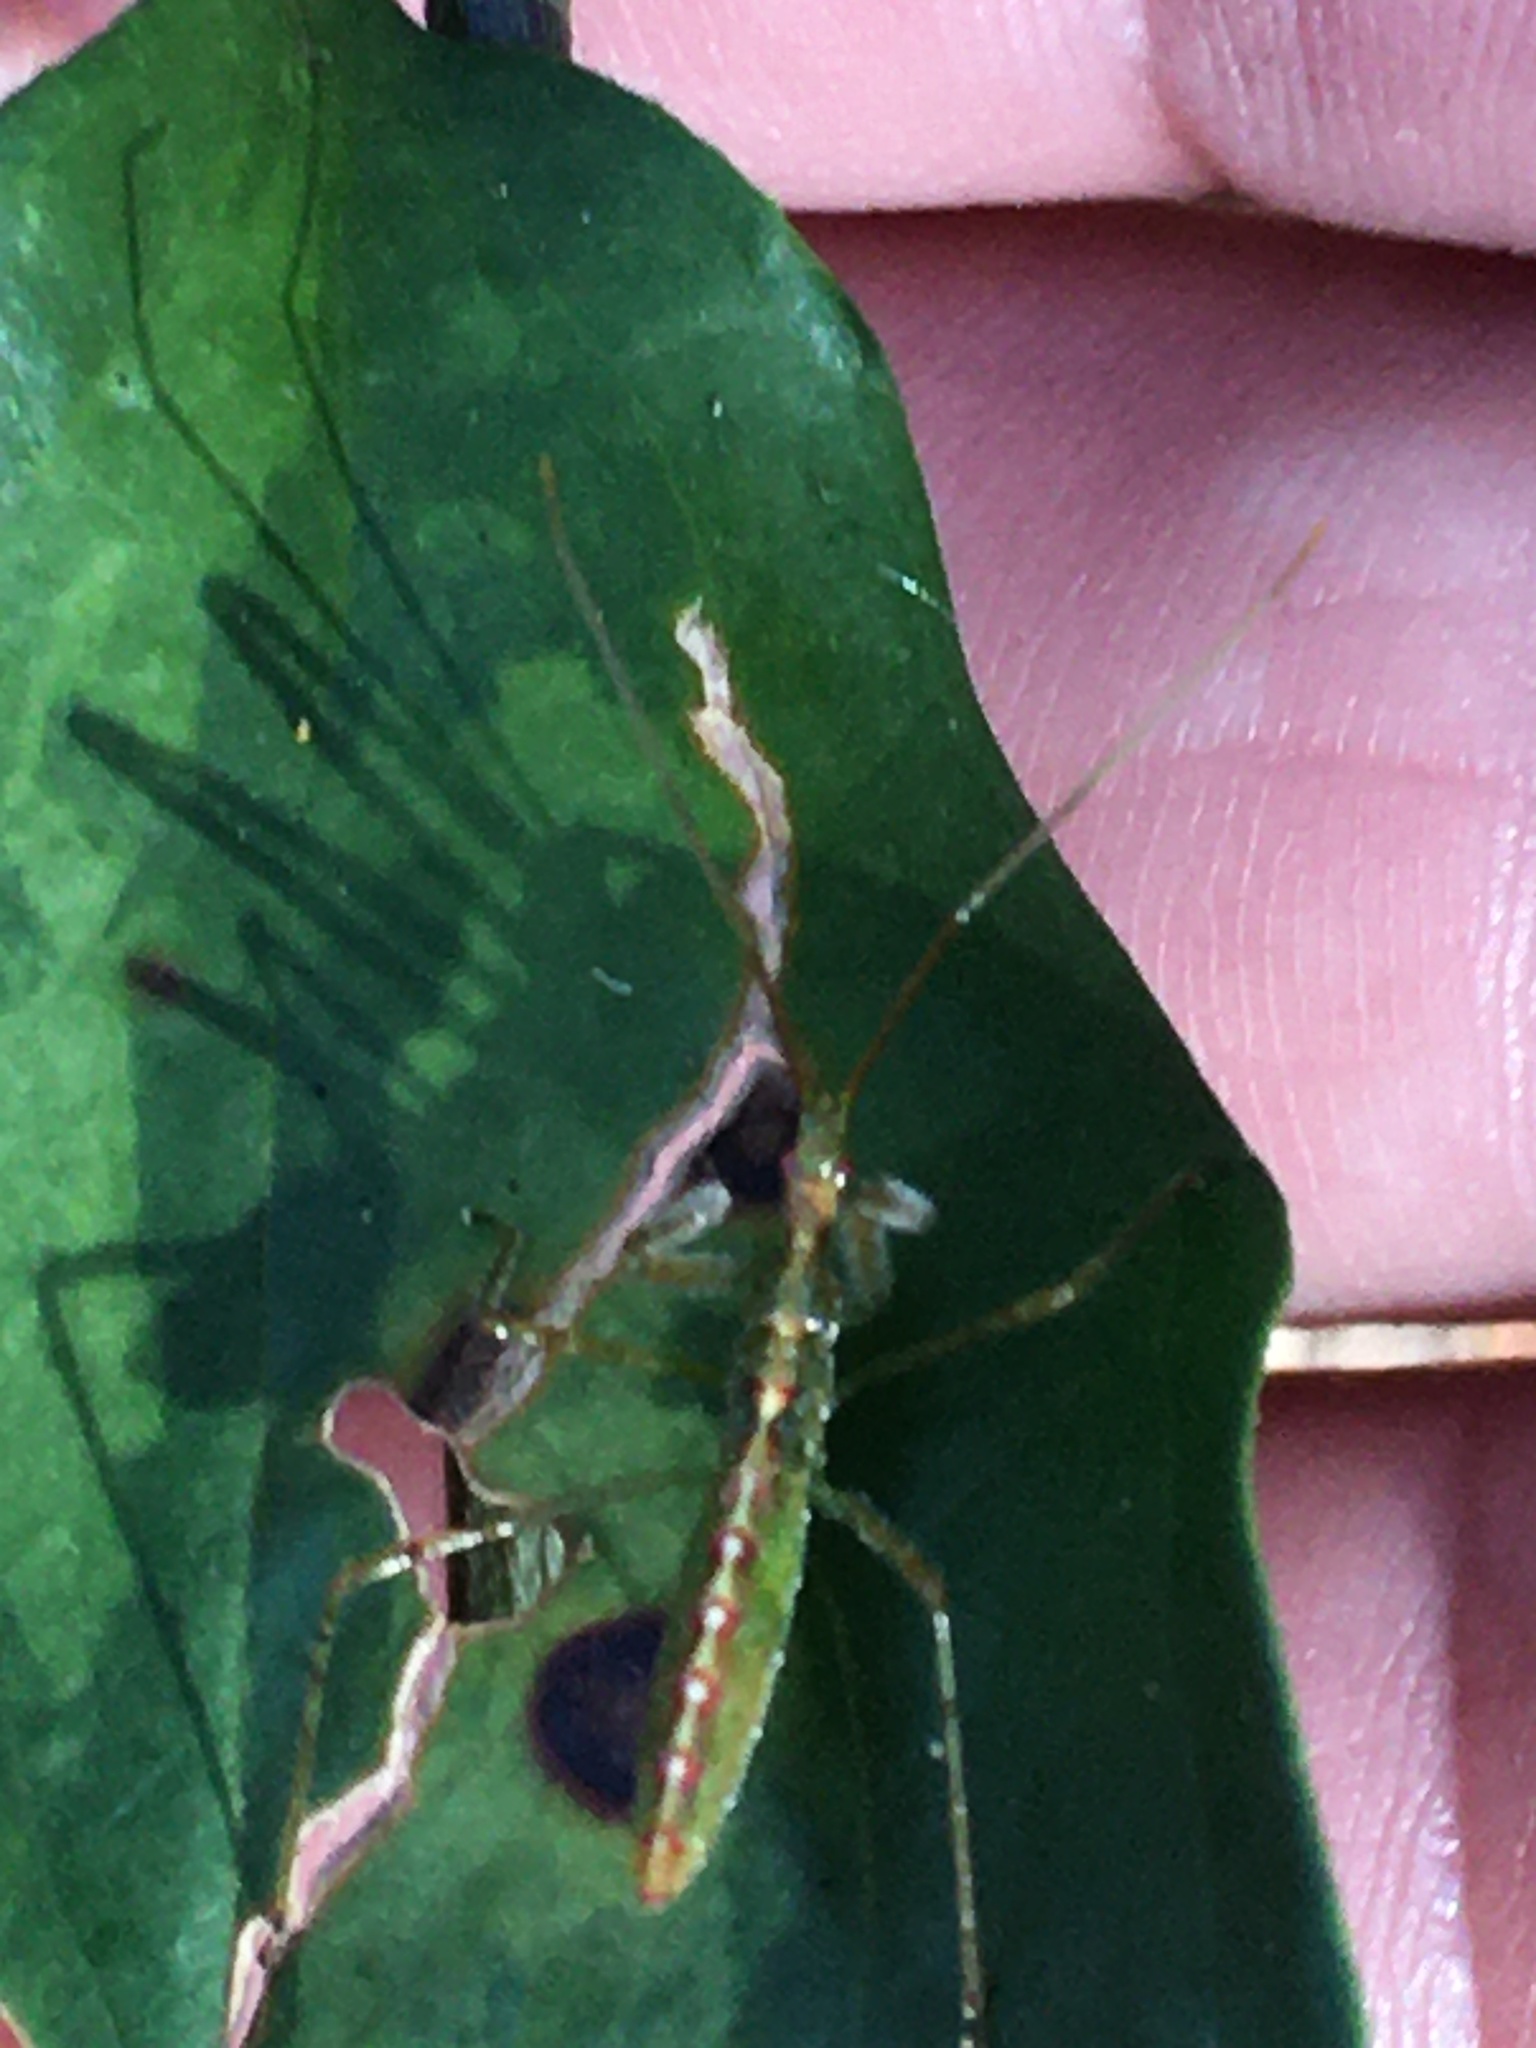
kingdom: Animalia
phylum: Arthropoda
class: Insecta
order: Hemiptera
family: Reduviidae
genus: Zelus
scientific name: Zelus luridus
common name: Pale green assassin bug
